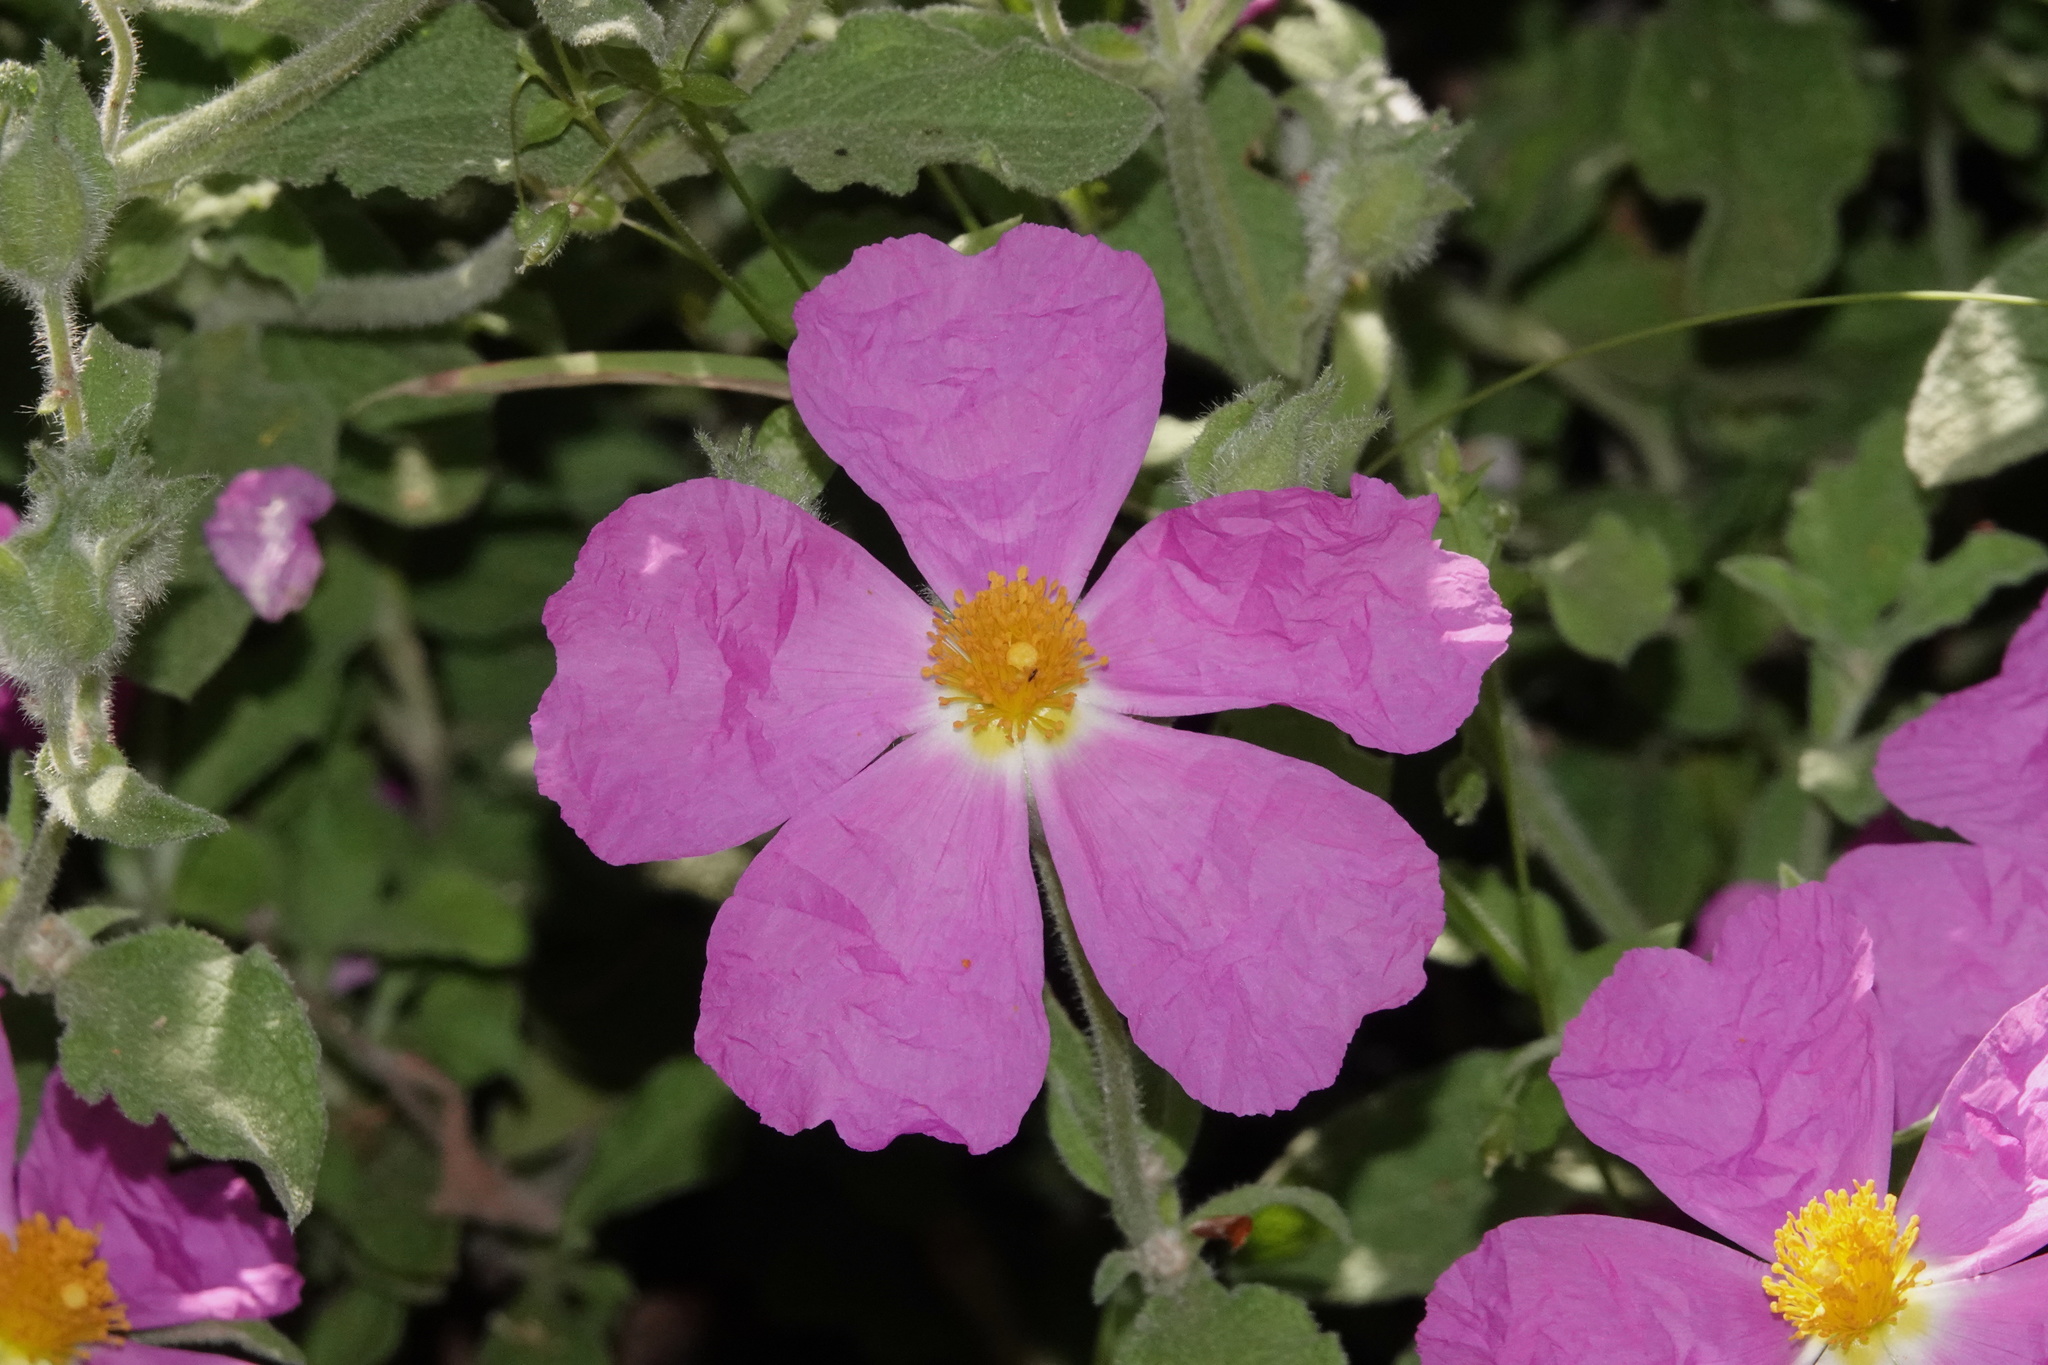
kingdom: Plantae
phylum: Tracheophyta
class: Magnoliopsida
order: Malvales
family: Cistaceae
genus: Cistus
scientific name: Cistus creticus
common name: Cretan rockrose
